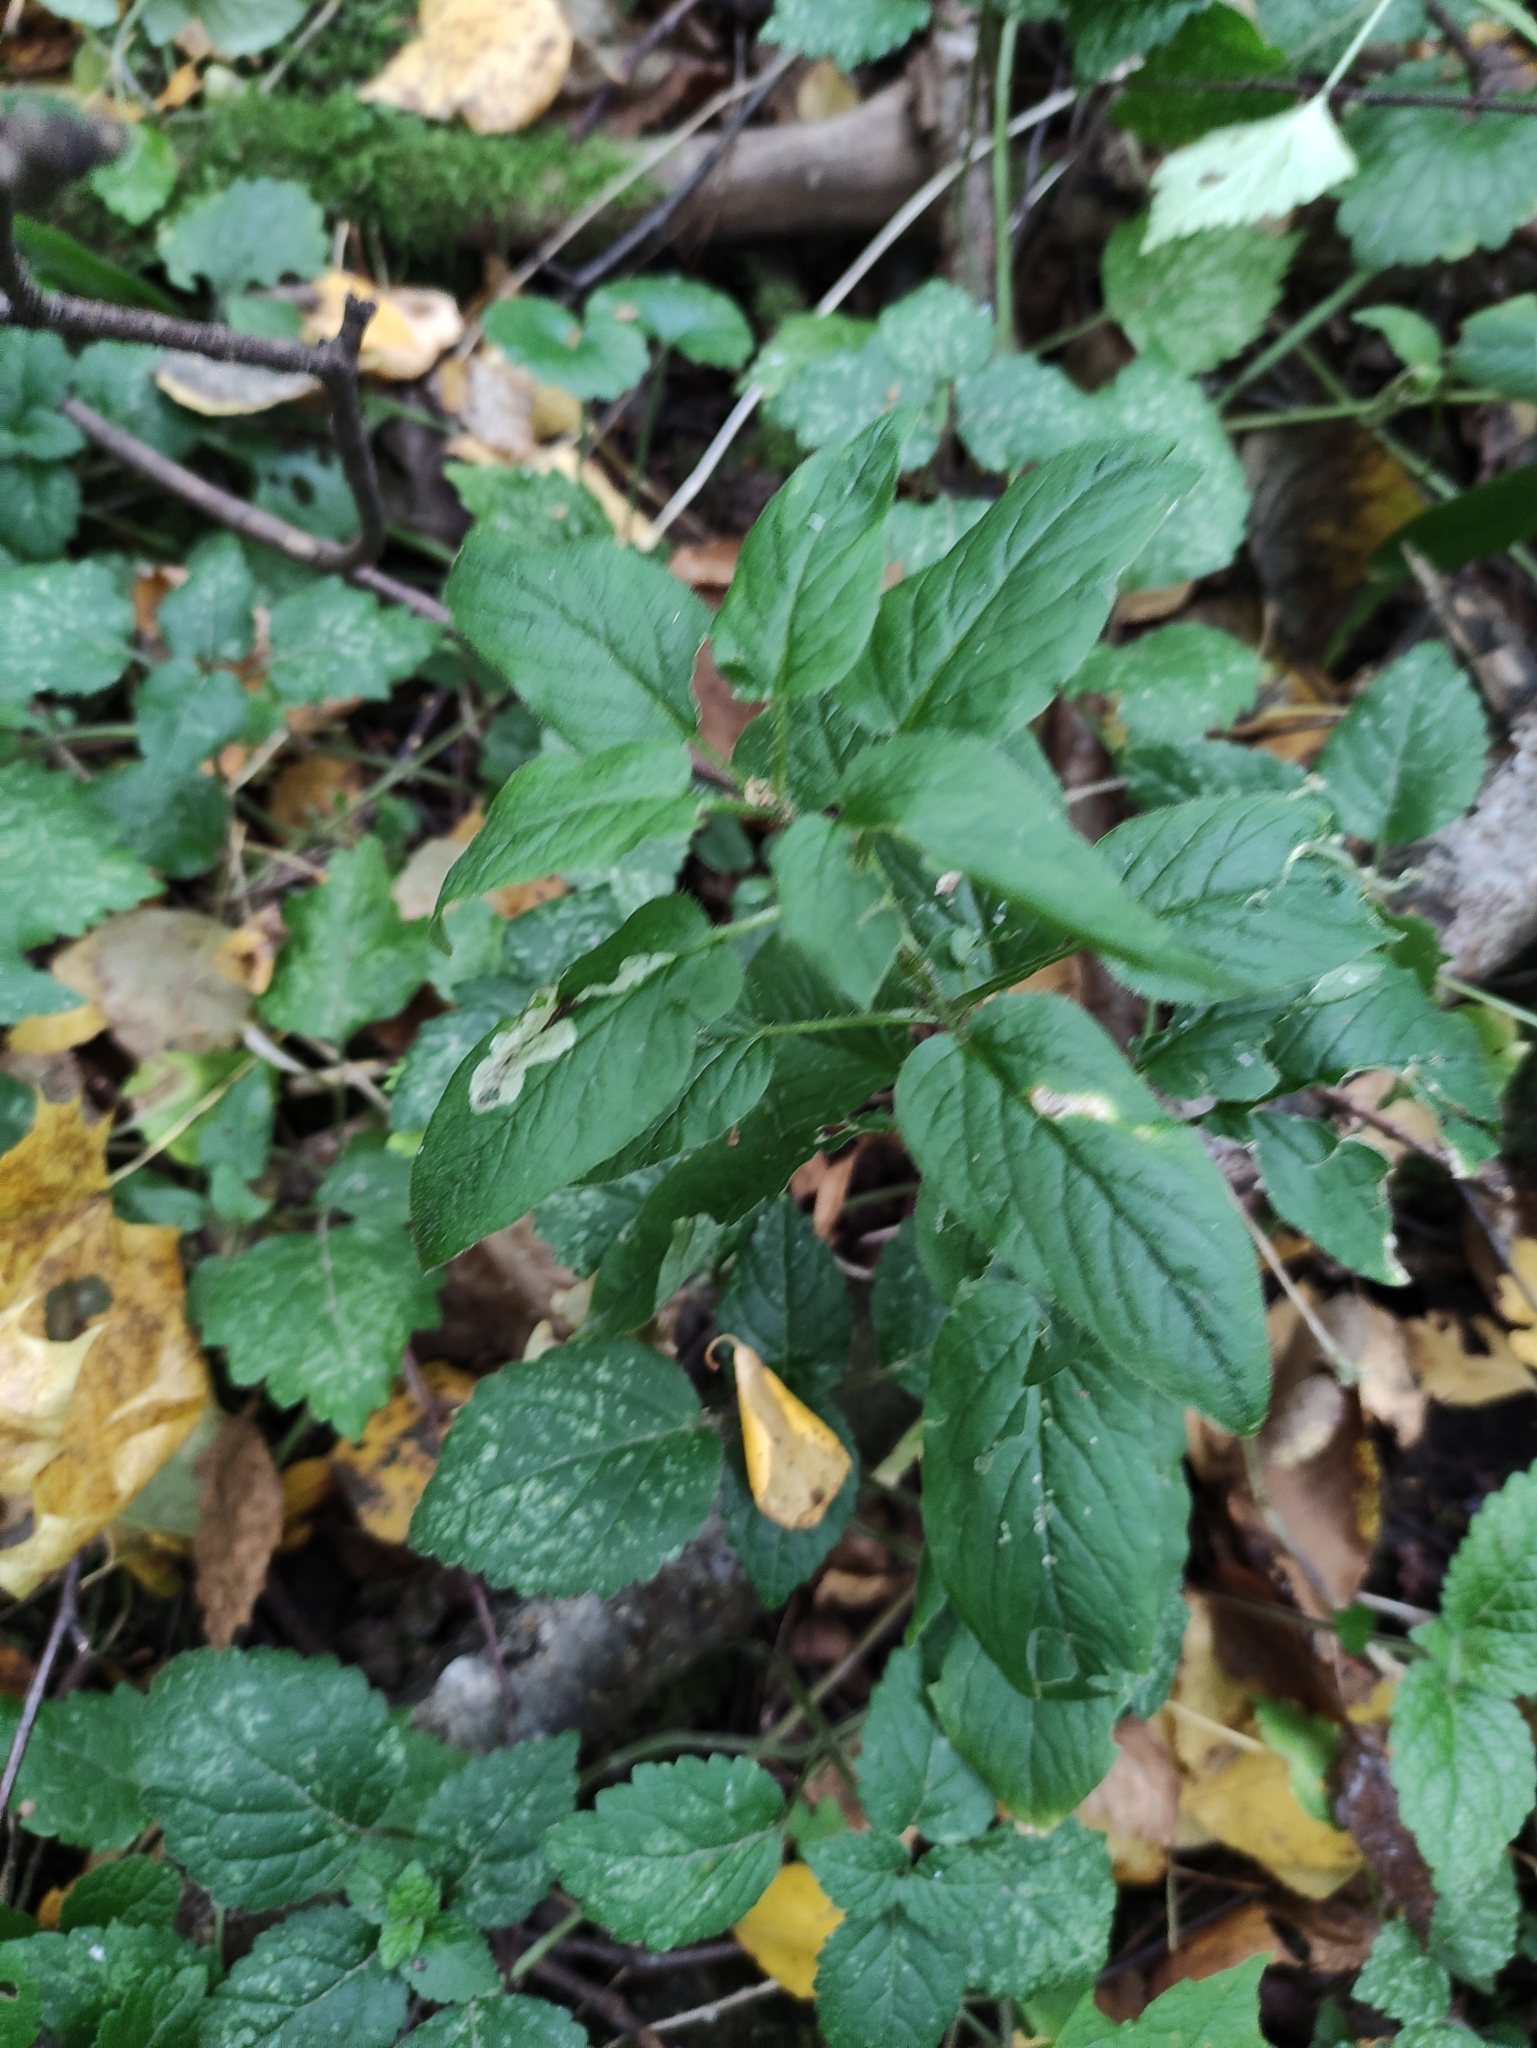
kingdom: Plantae
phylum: Tracheophyta
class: Magnoliopsida
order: Caryophyllales
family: Caryophyllaceae
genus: Stellaria
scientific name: Stellaria nemorum
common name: Wood stitchwort
